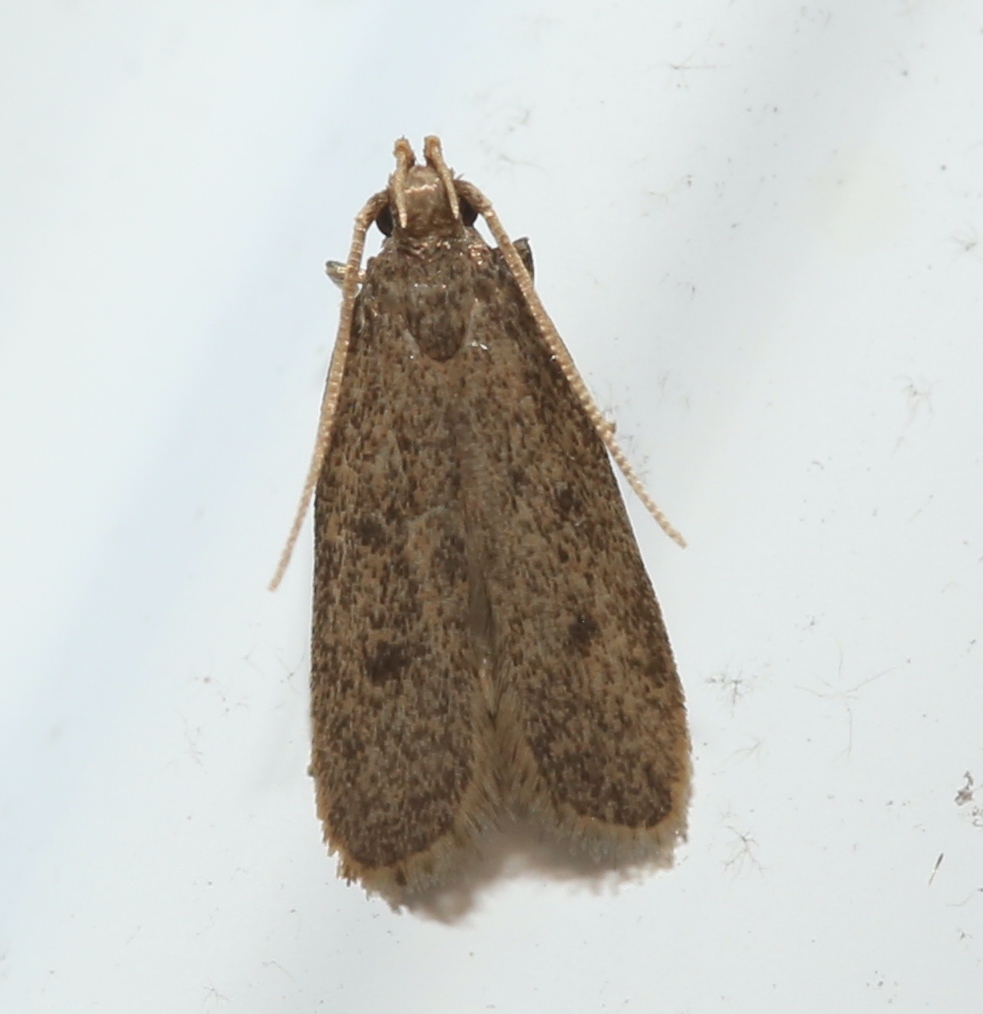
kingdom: Animalia
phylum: Arthropoda
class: Insecta
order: Lepidoptera
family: Autostichidae
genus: Glyphidocera
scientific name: Glyphidocera juniperella
